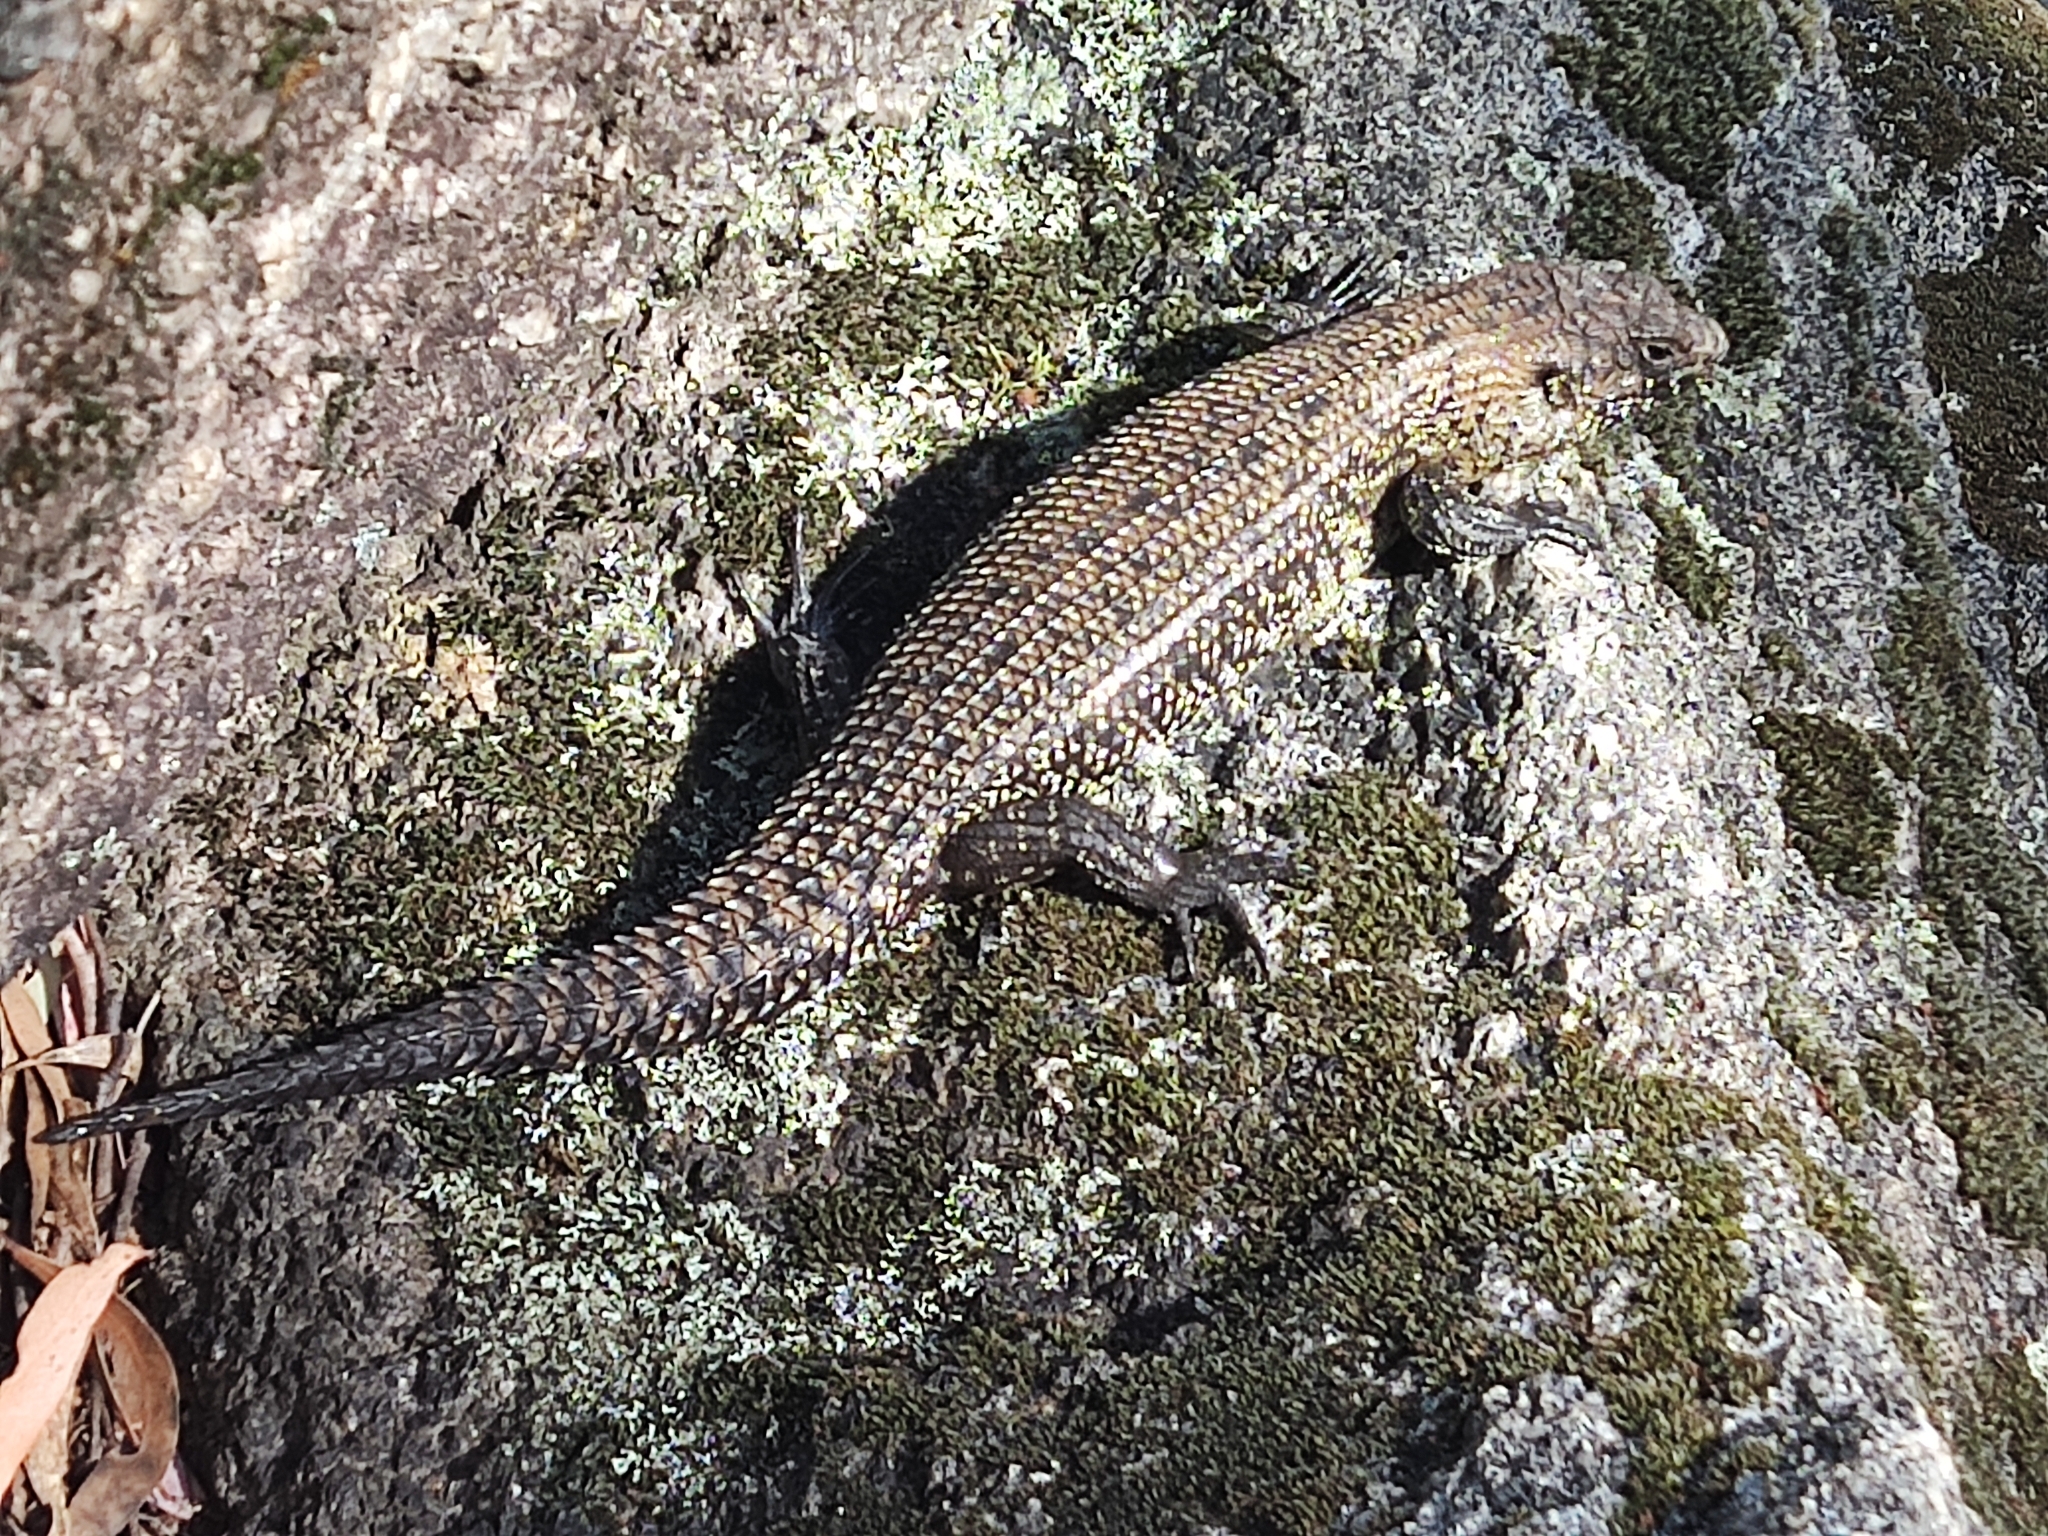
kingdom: Animalia
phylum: Chordata
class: Squamata
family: Scincidae
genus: Egernia
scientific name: Egernia cunninghami
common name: Cunningham's skink
